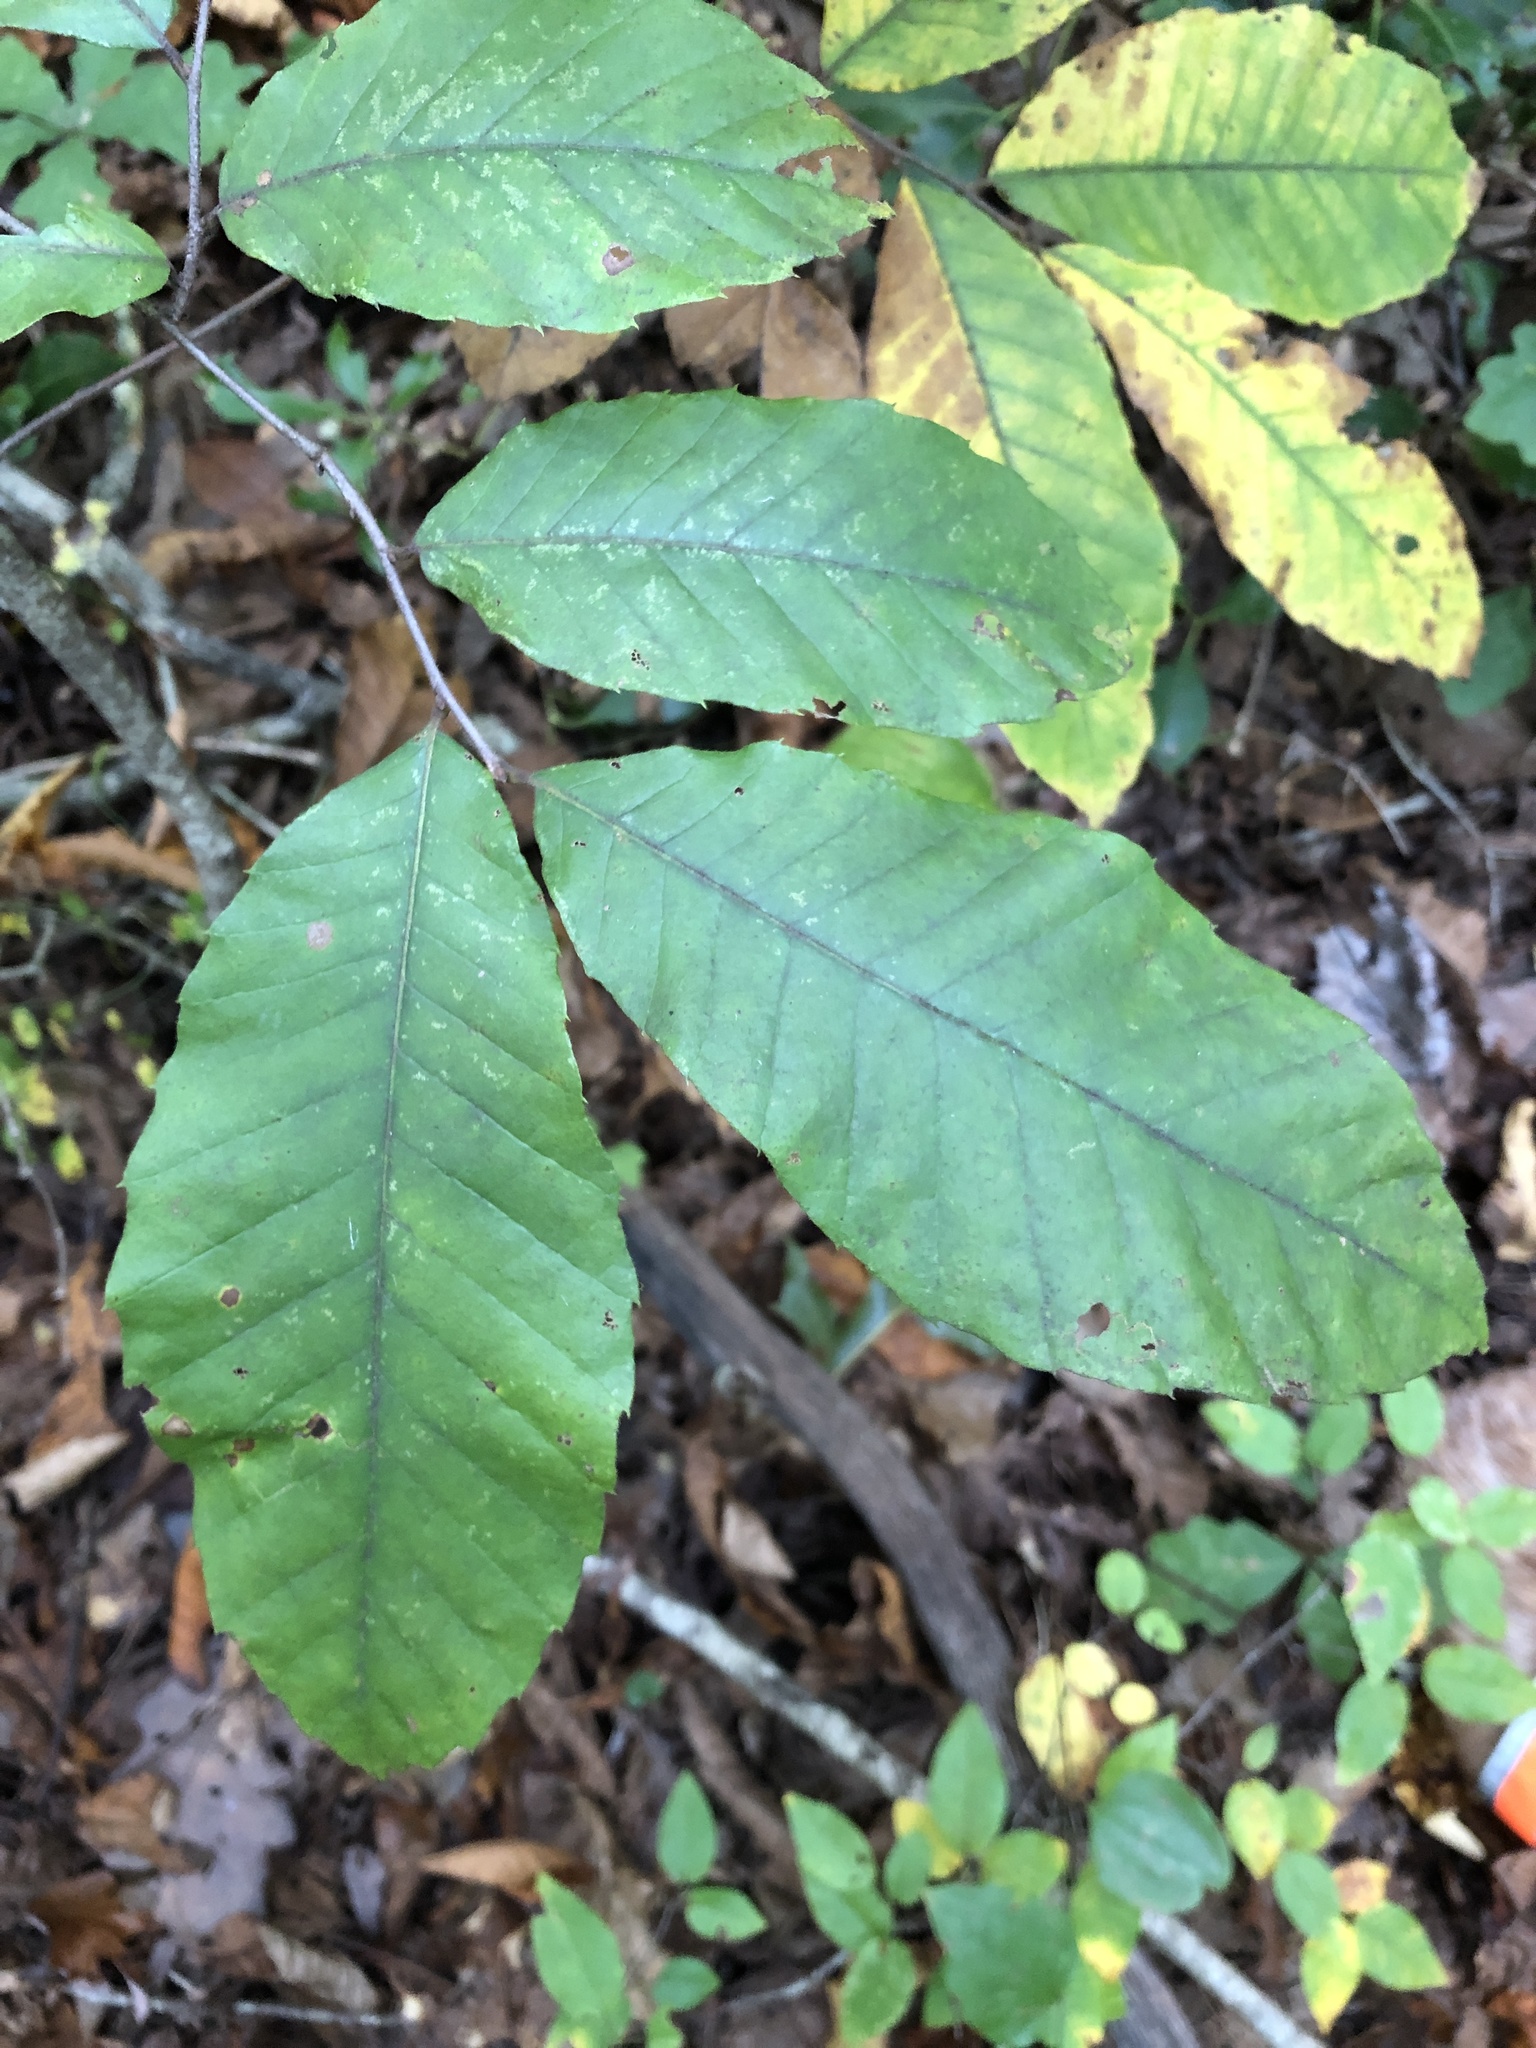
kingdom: Plantae
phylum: Tracheophyta
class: Magnoliopsida
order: Fagales
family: Fagaceae
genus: Castanea
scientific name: Castanea pumila
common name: Chinkapin
